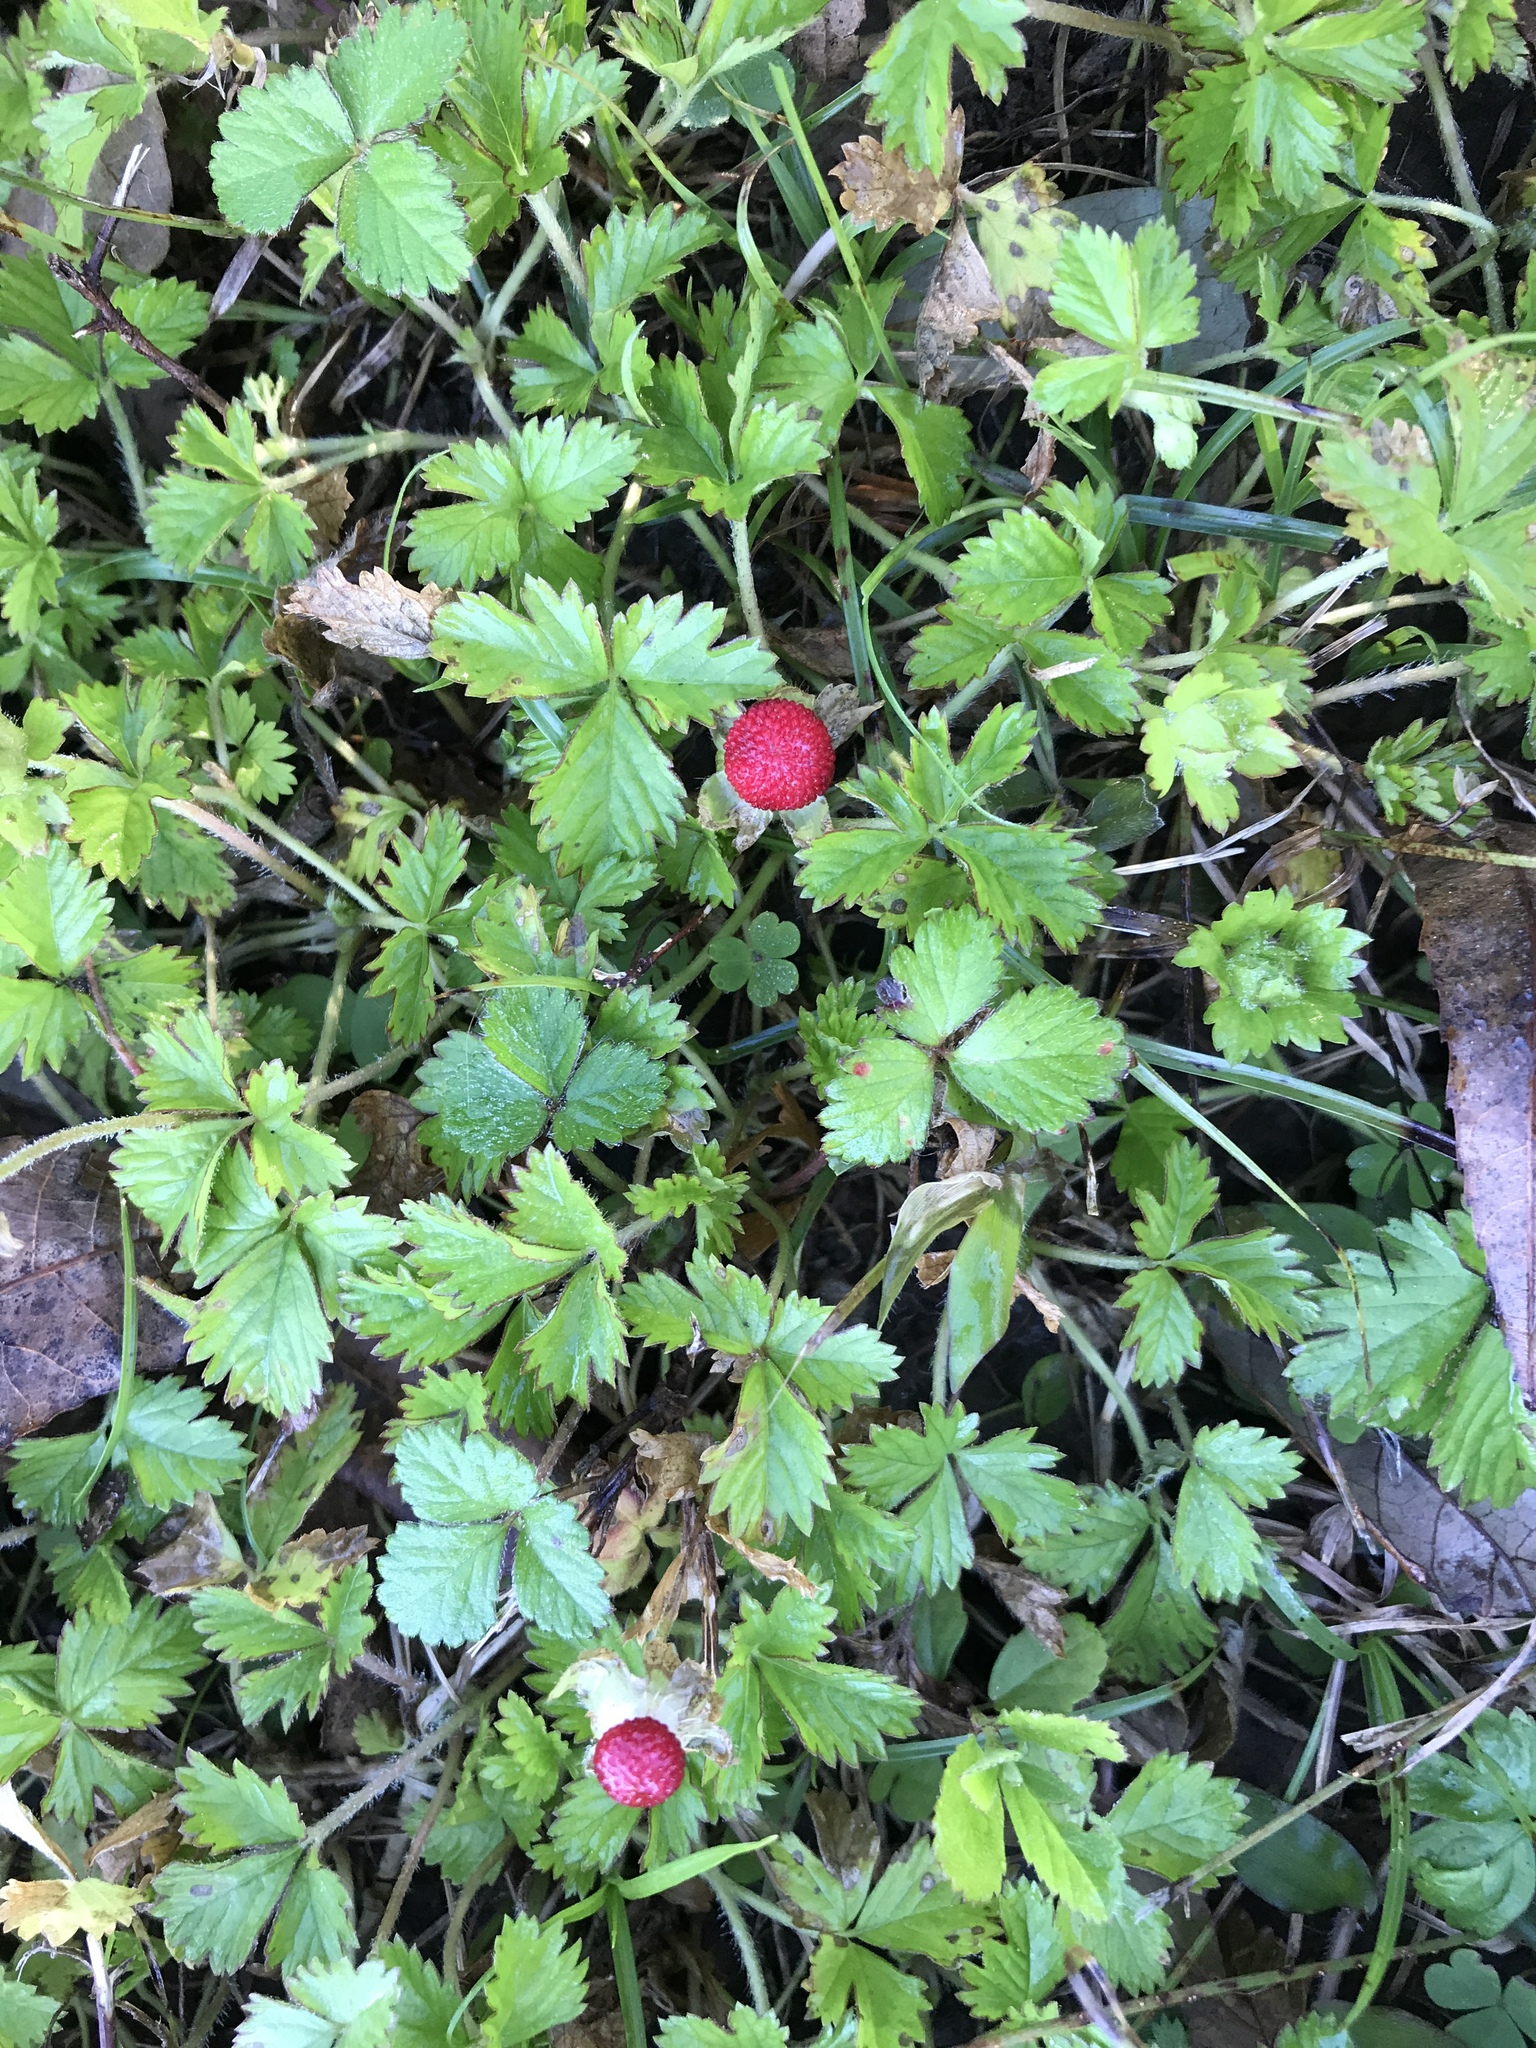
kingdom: Plantae
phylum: Tracheophyta
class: Magnoliopsida
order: Rosales
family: Rosaceae
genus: Potentilla
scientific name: Potentilla indica
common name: Yellow-flowered strawberry
